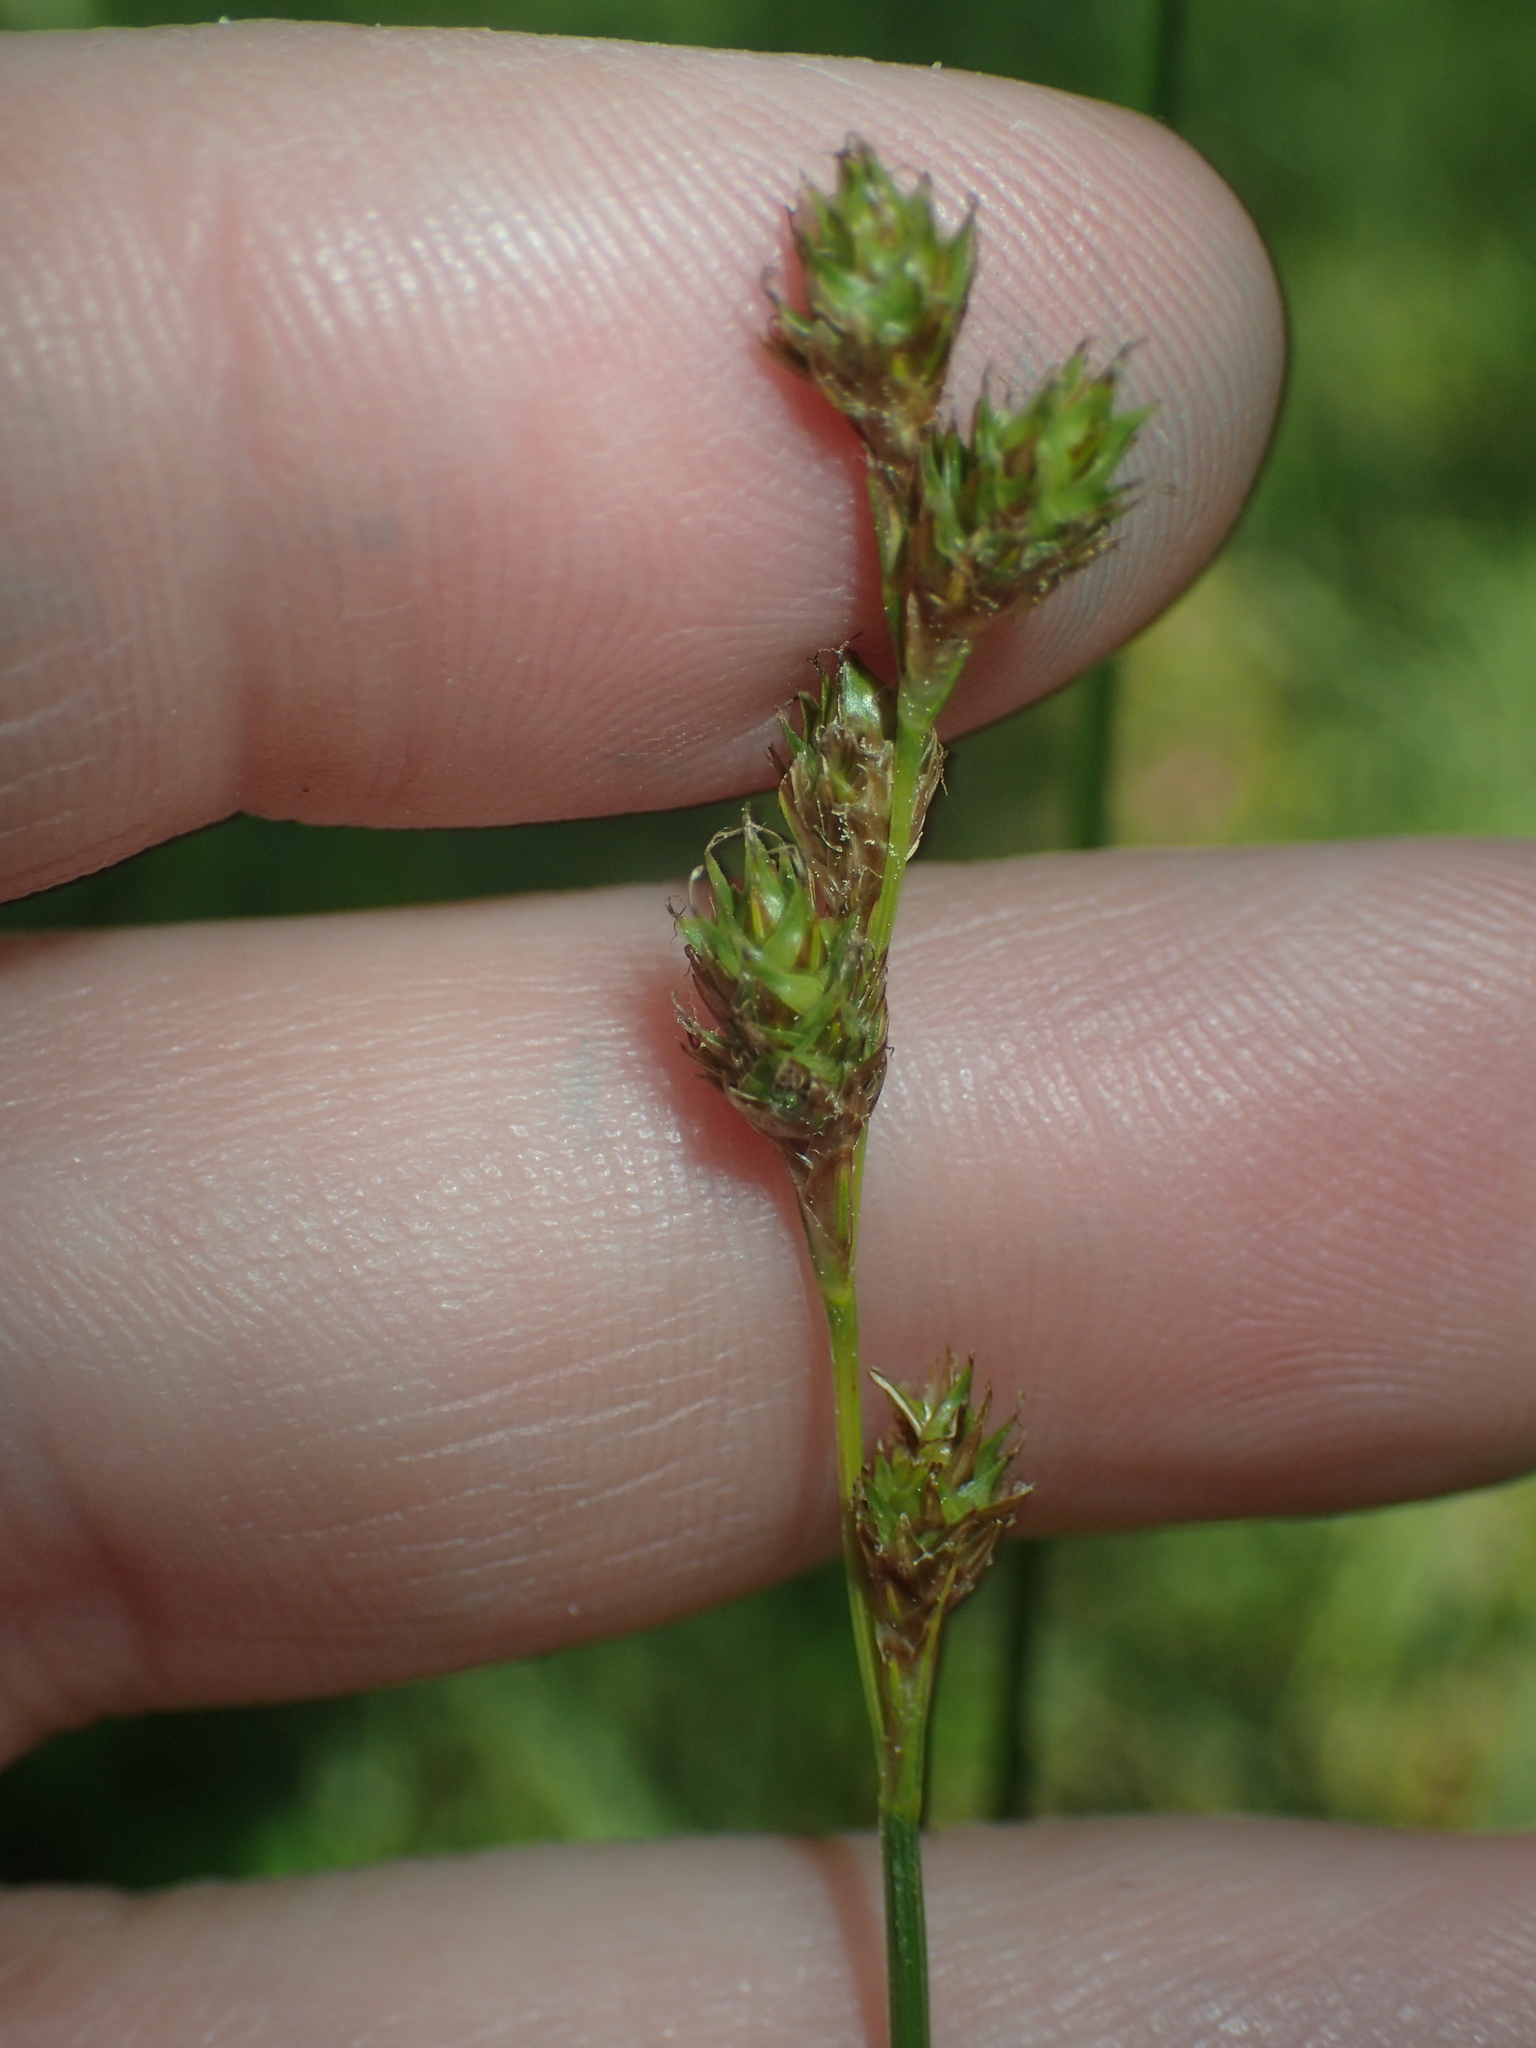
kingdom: Plantae
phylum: Tracheophyta
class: Liliopsida
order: Poales
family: Cyperaceae
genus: Carex
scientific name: Carex brevior
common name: Brevior sedge
